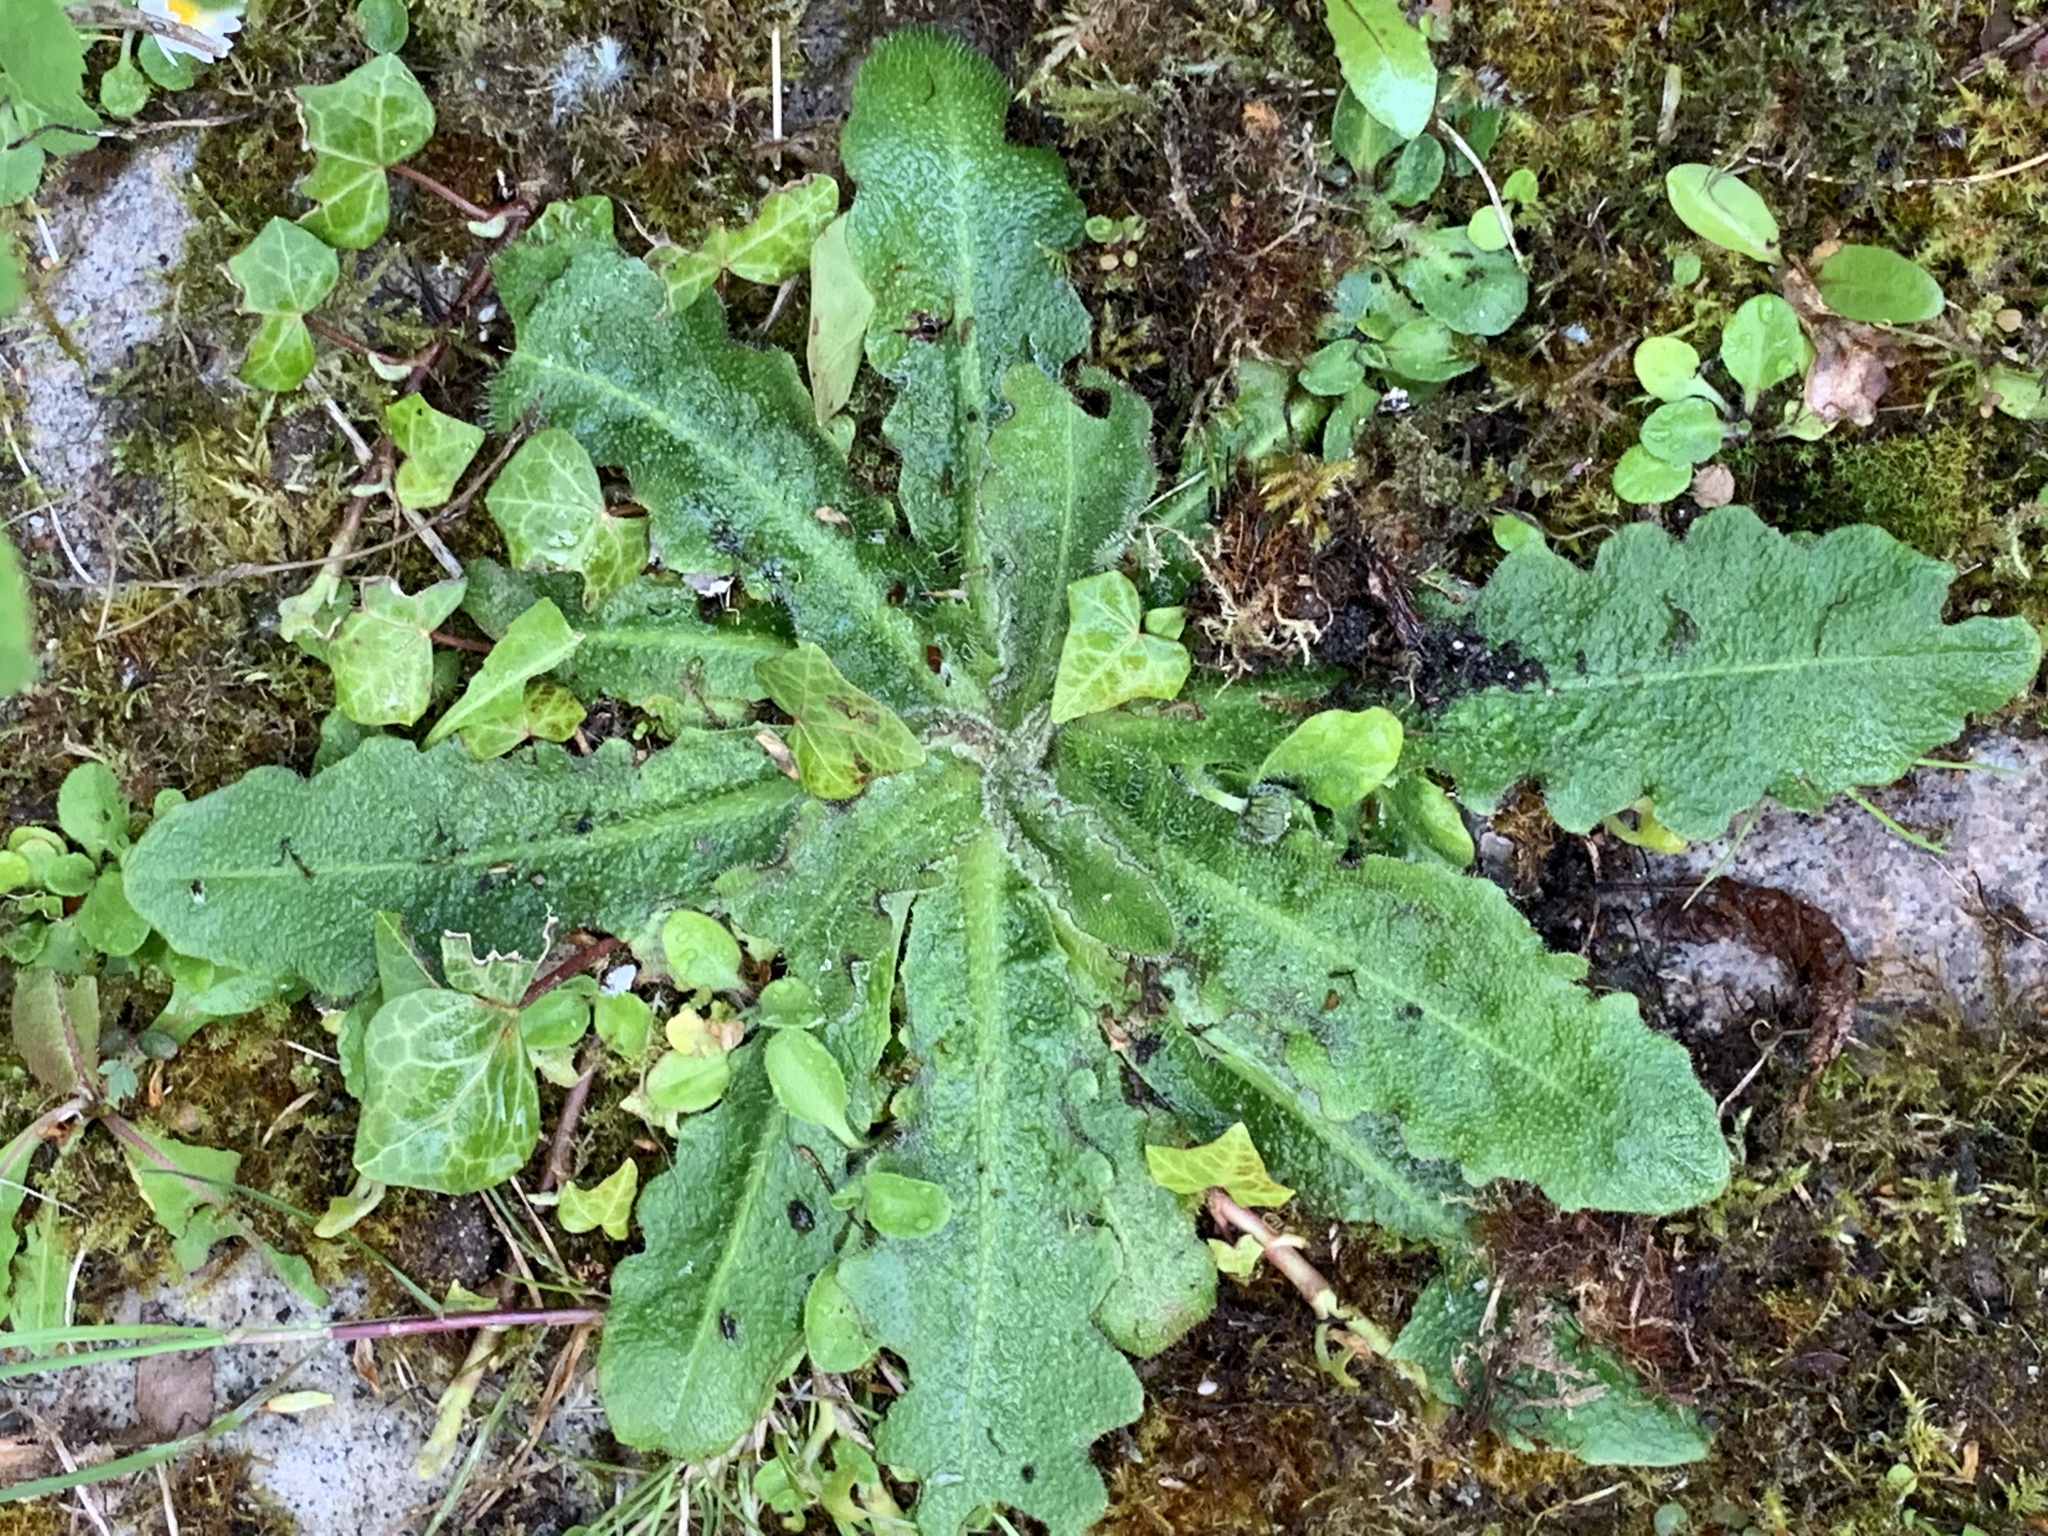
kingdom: Plantae
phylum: Tracheophyta
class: Magnoliopsida
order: Asterales
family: Asteraceae
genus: Hypochaeris
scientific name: Hypochaeris radicata
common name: Flatweed
